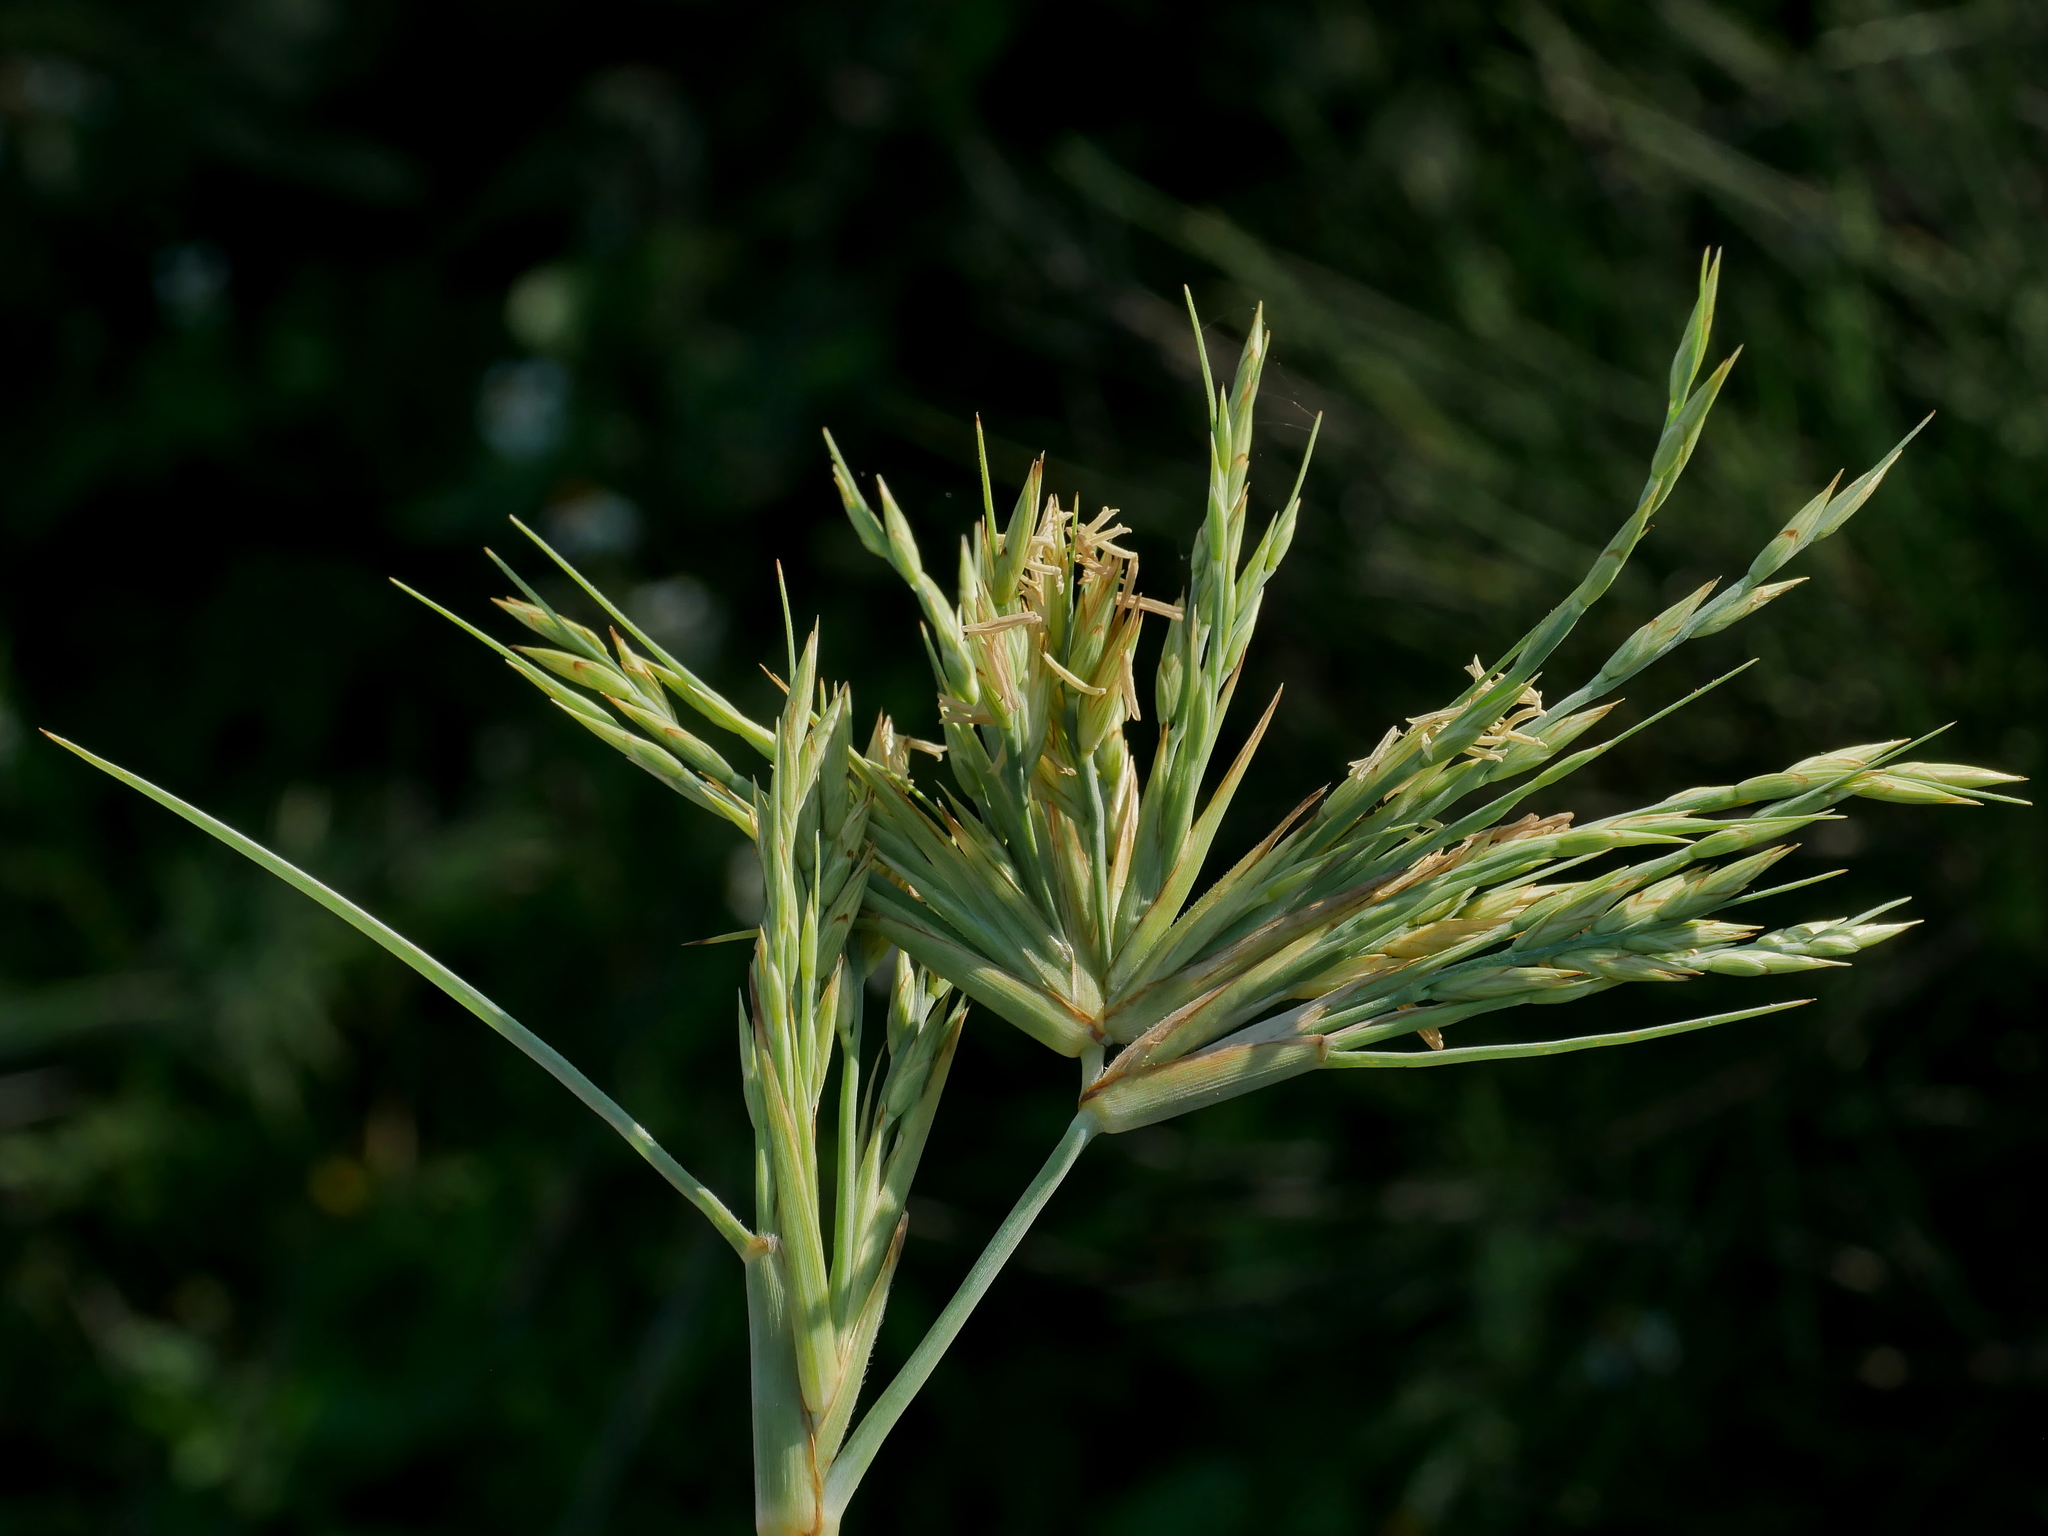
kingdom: Plantae
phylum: Tracheophyta
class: Liliopsida
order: Poales
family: Poaceae
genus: Spinifex
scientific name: Spinifex littoreus
